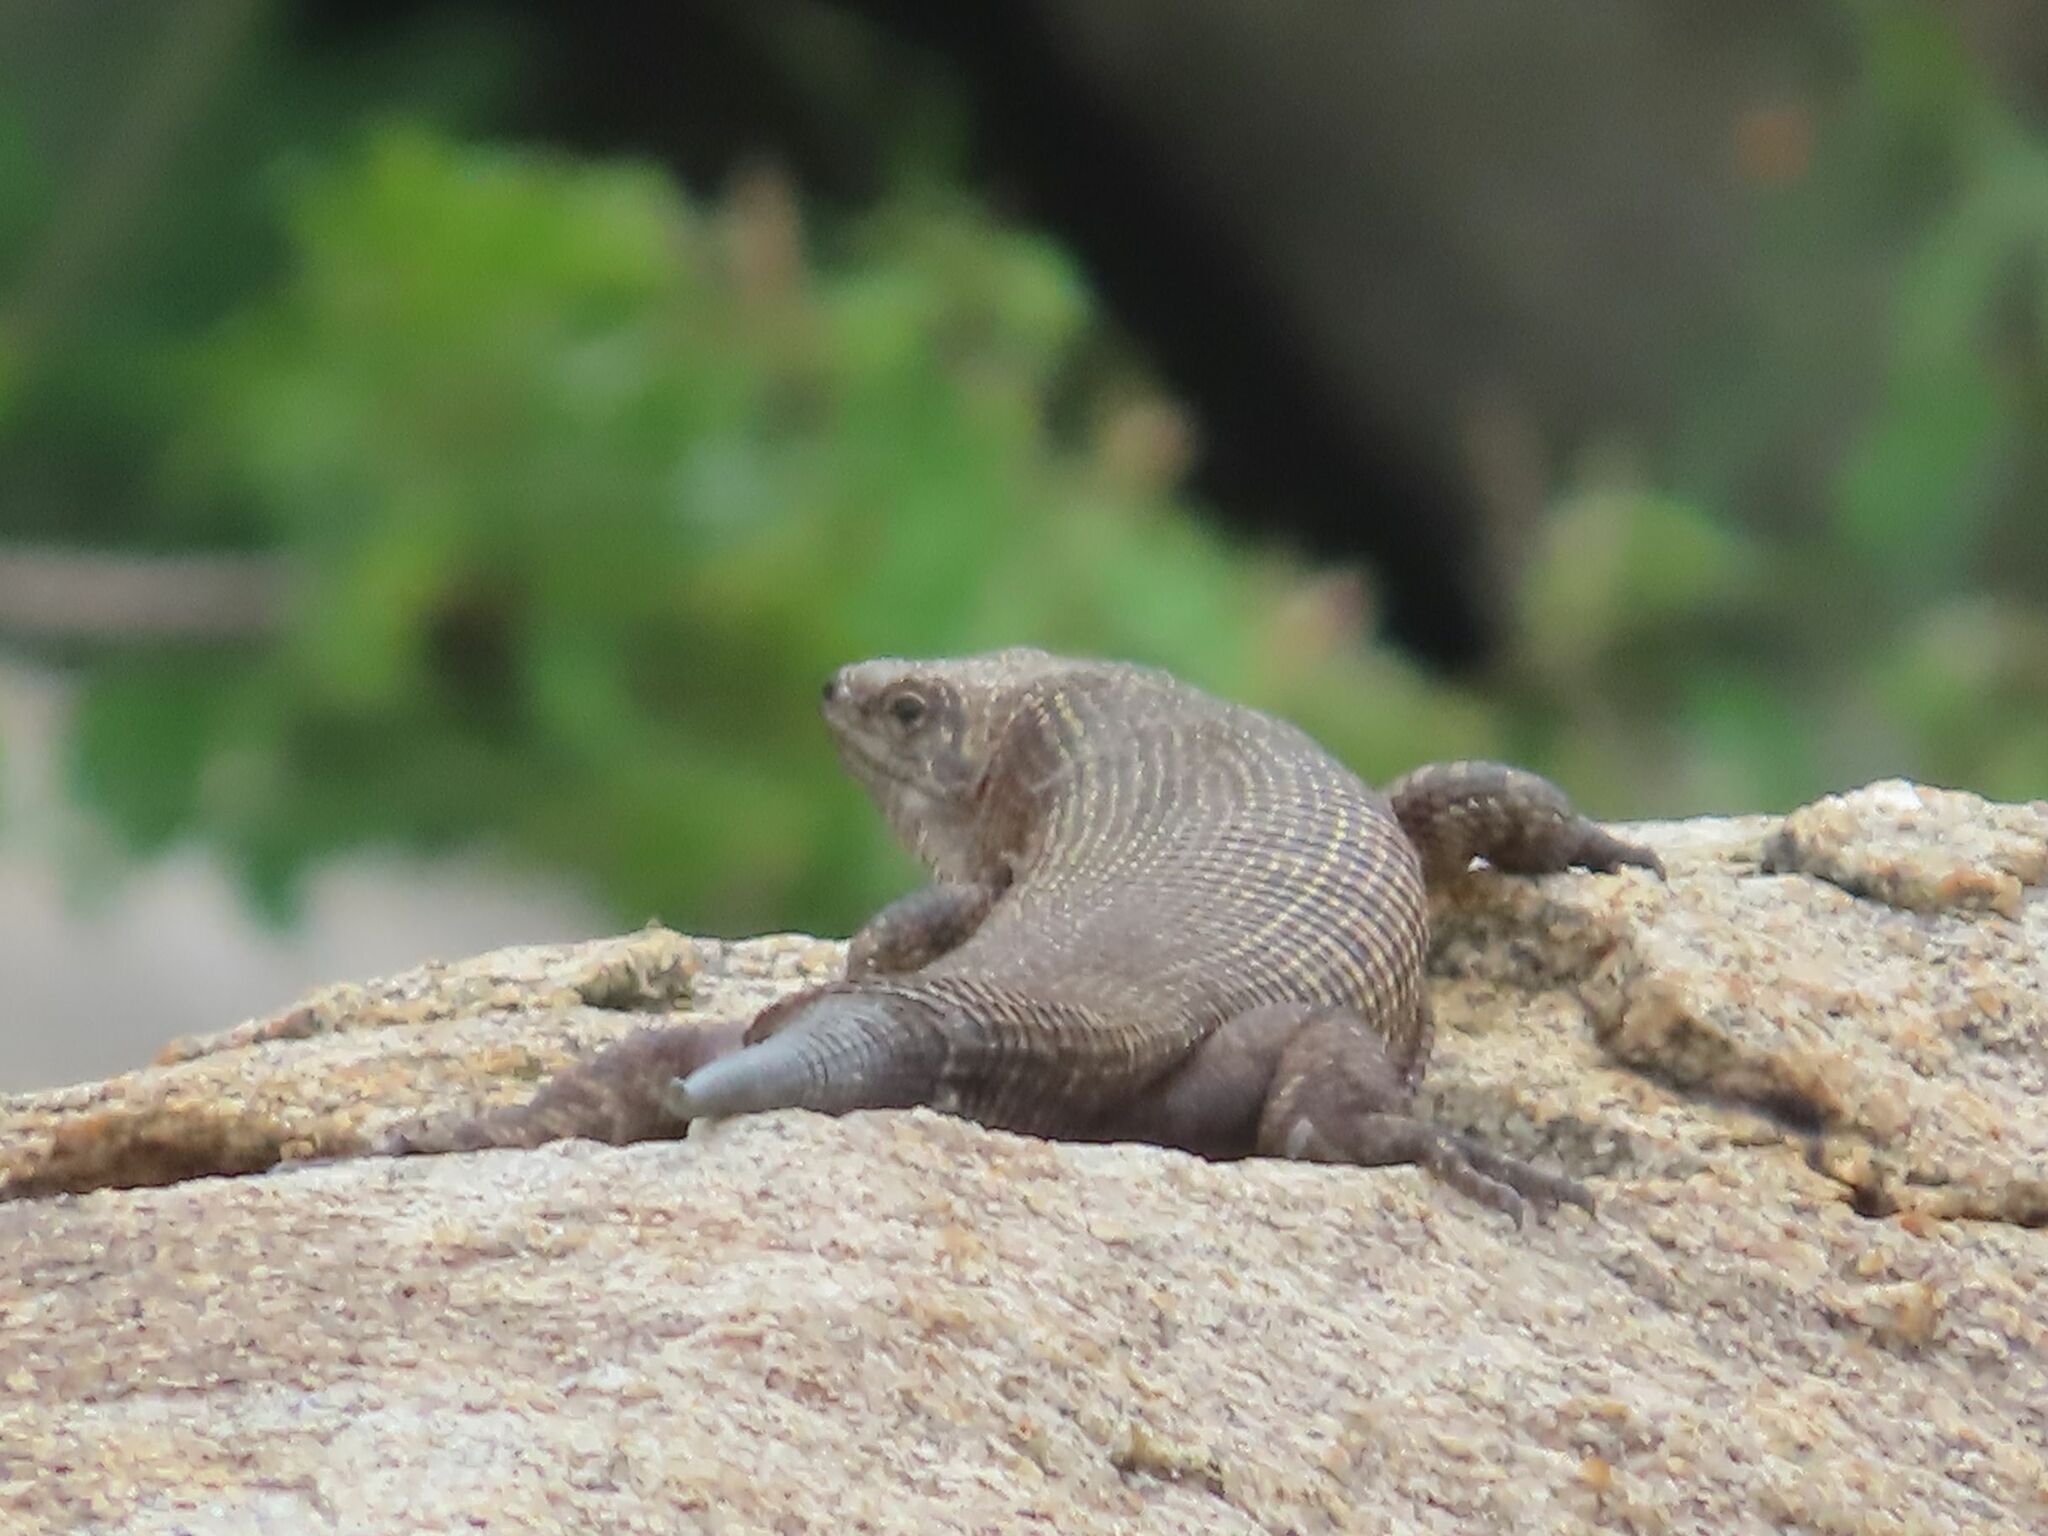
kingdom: Animalia
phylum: Chordata
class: Squamata
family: Gerrhosauridae
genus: Matobosaurus
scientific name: Matobosaurus validus
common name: Common giant plated lizard
